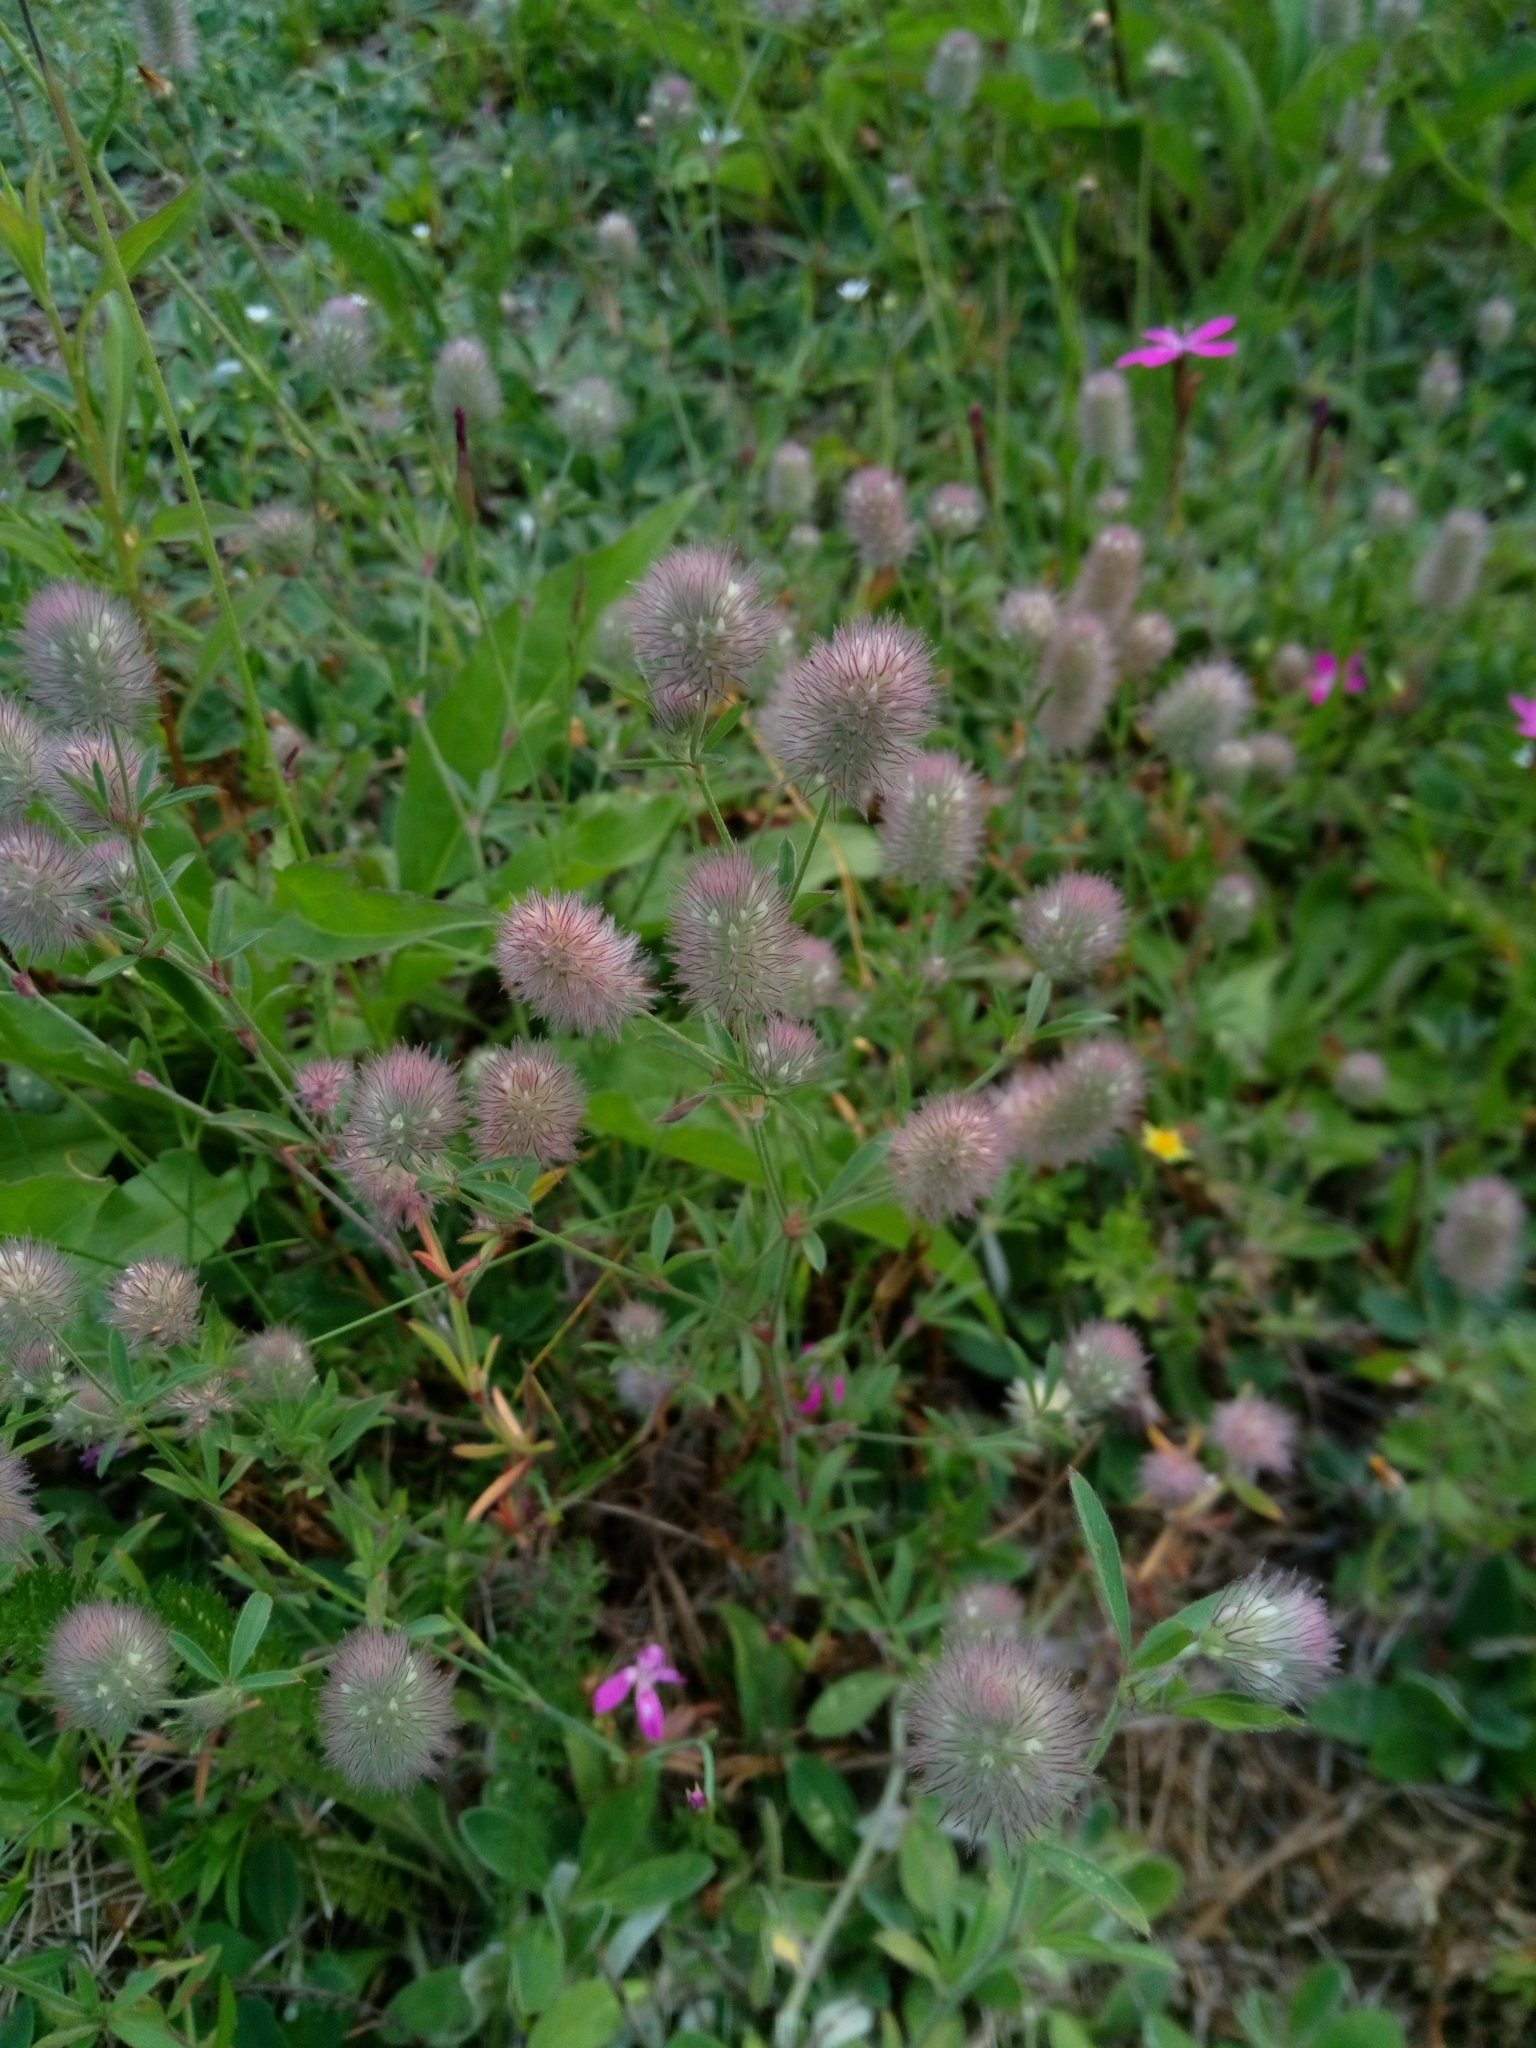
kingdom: Plantae
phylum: Tracheophyta
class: Magnoliopsida
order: Fabales
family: Fabaceae
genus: Trifolium
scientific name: Trifolium arvense
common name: Hare's-foot clover
